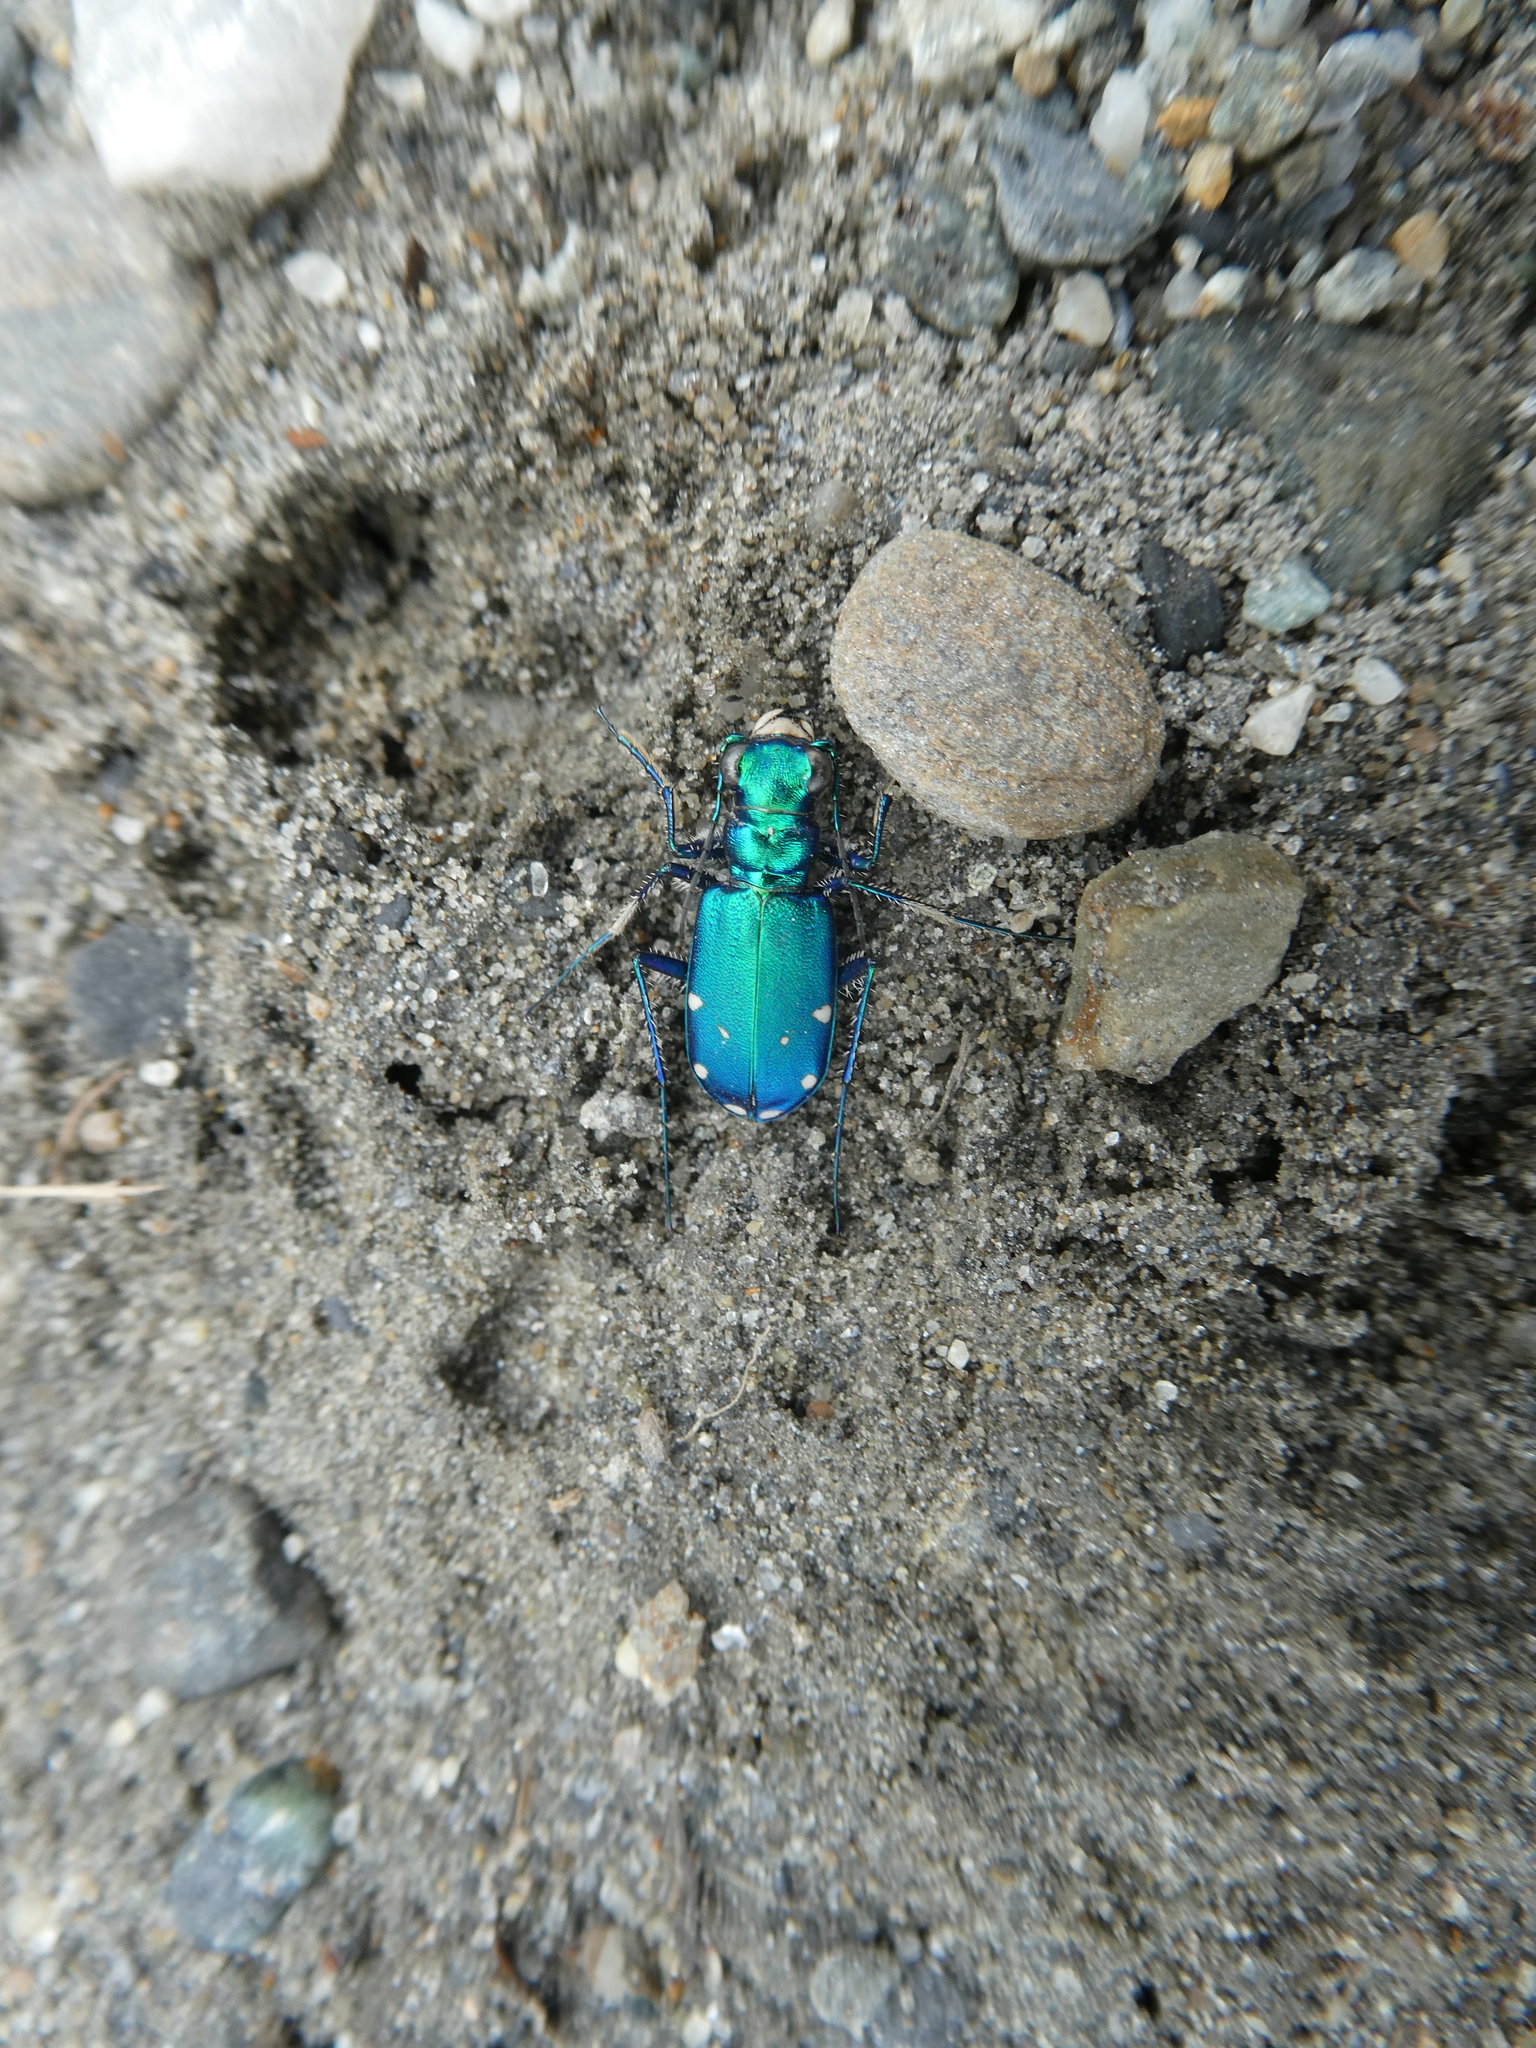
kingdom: Animalia
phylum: Arthropoda
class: Insecta
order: Coleoptera
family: Carabidae
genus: Cicindela
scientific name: Cicindela sexguttata
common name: Six-spotted tiger beetle
